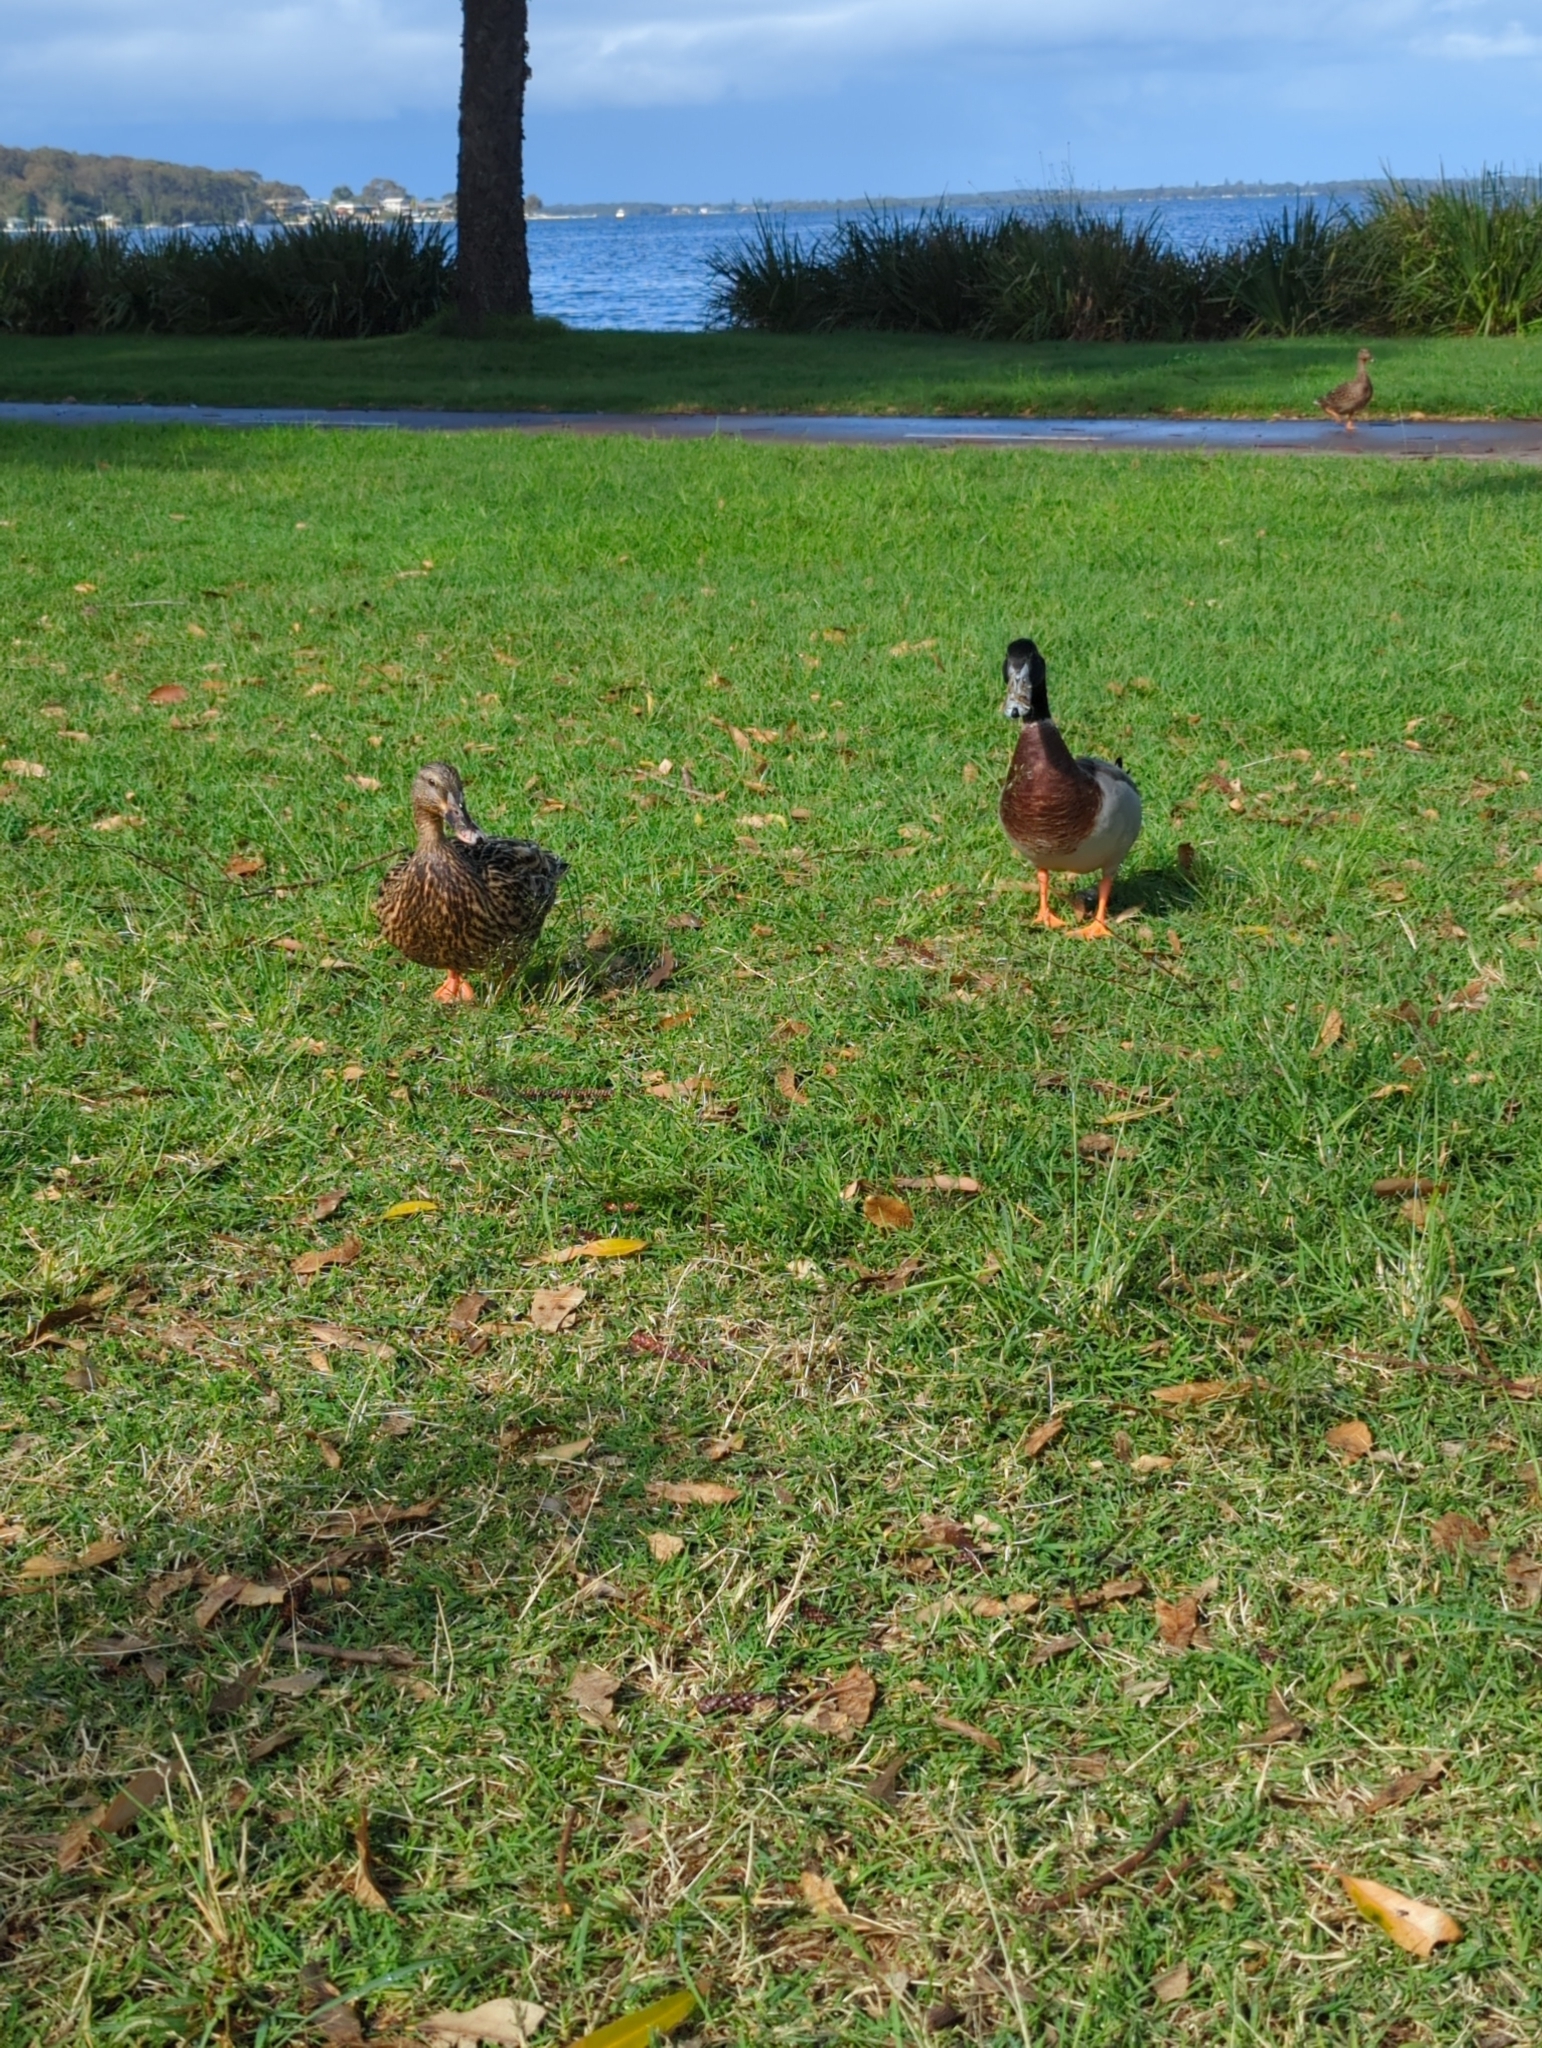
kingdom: Animalia
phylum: Chordata
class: Aves
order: Anseriformes
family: Anatidae
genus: Anas
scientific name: Anas platyrhynchos
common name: Mallard
